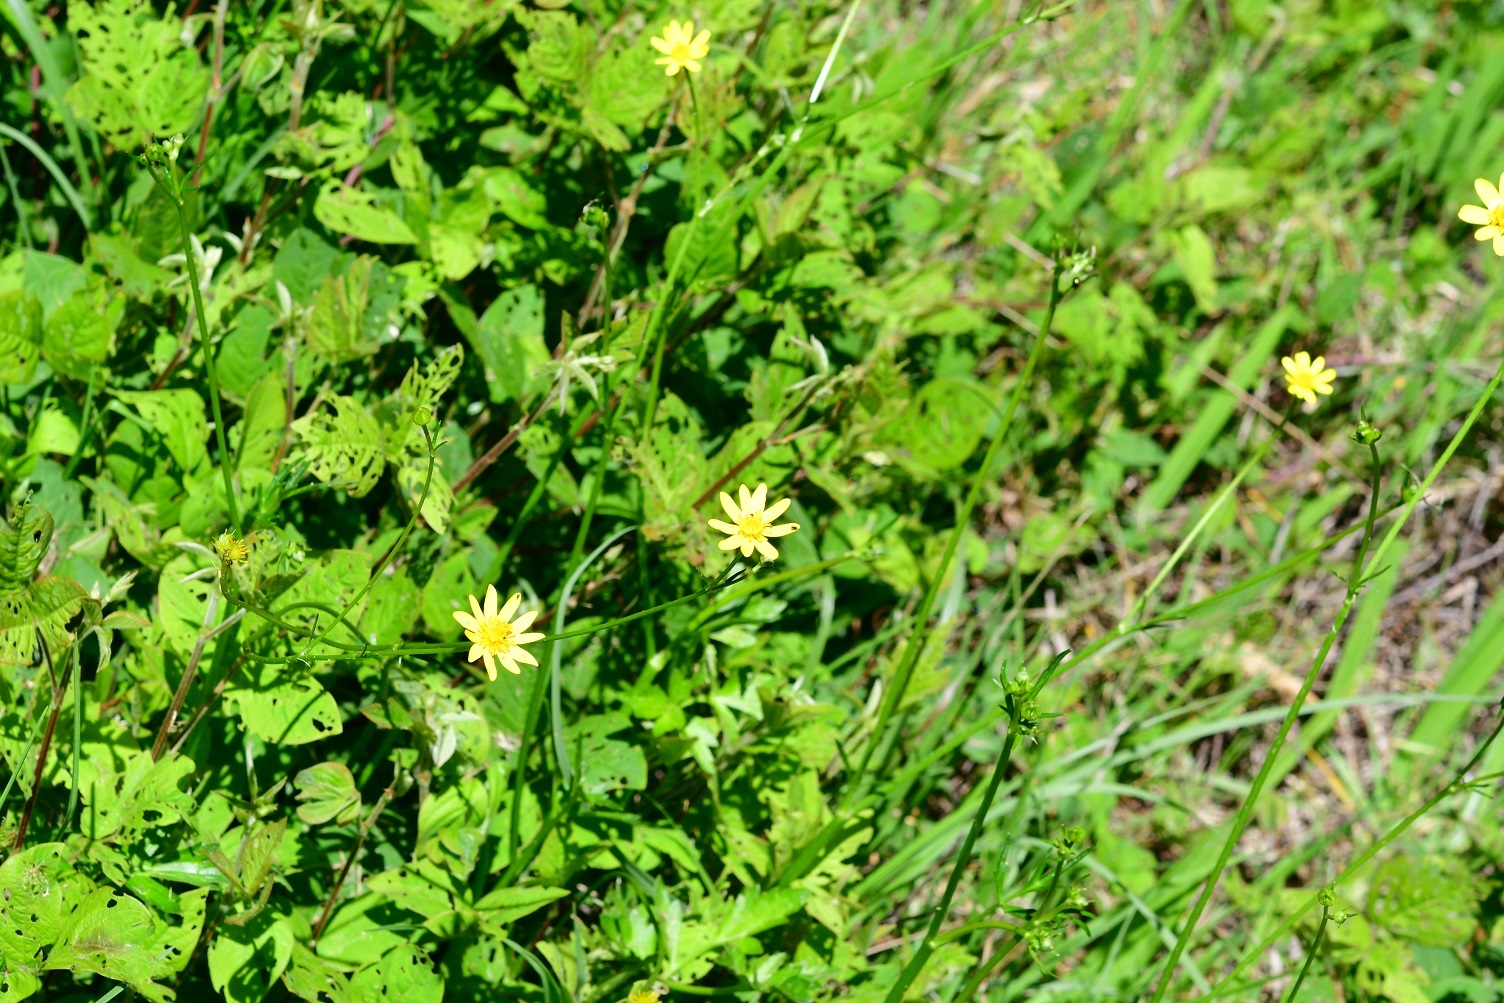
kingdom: Plantae
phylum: Tracheophyta
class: Magnoliopsida
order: Ranunculales
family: Ranunculaceae
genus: Ranunculus
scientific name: Ranunculus petiolaris
